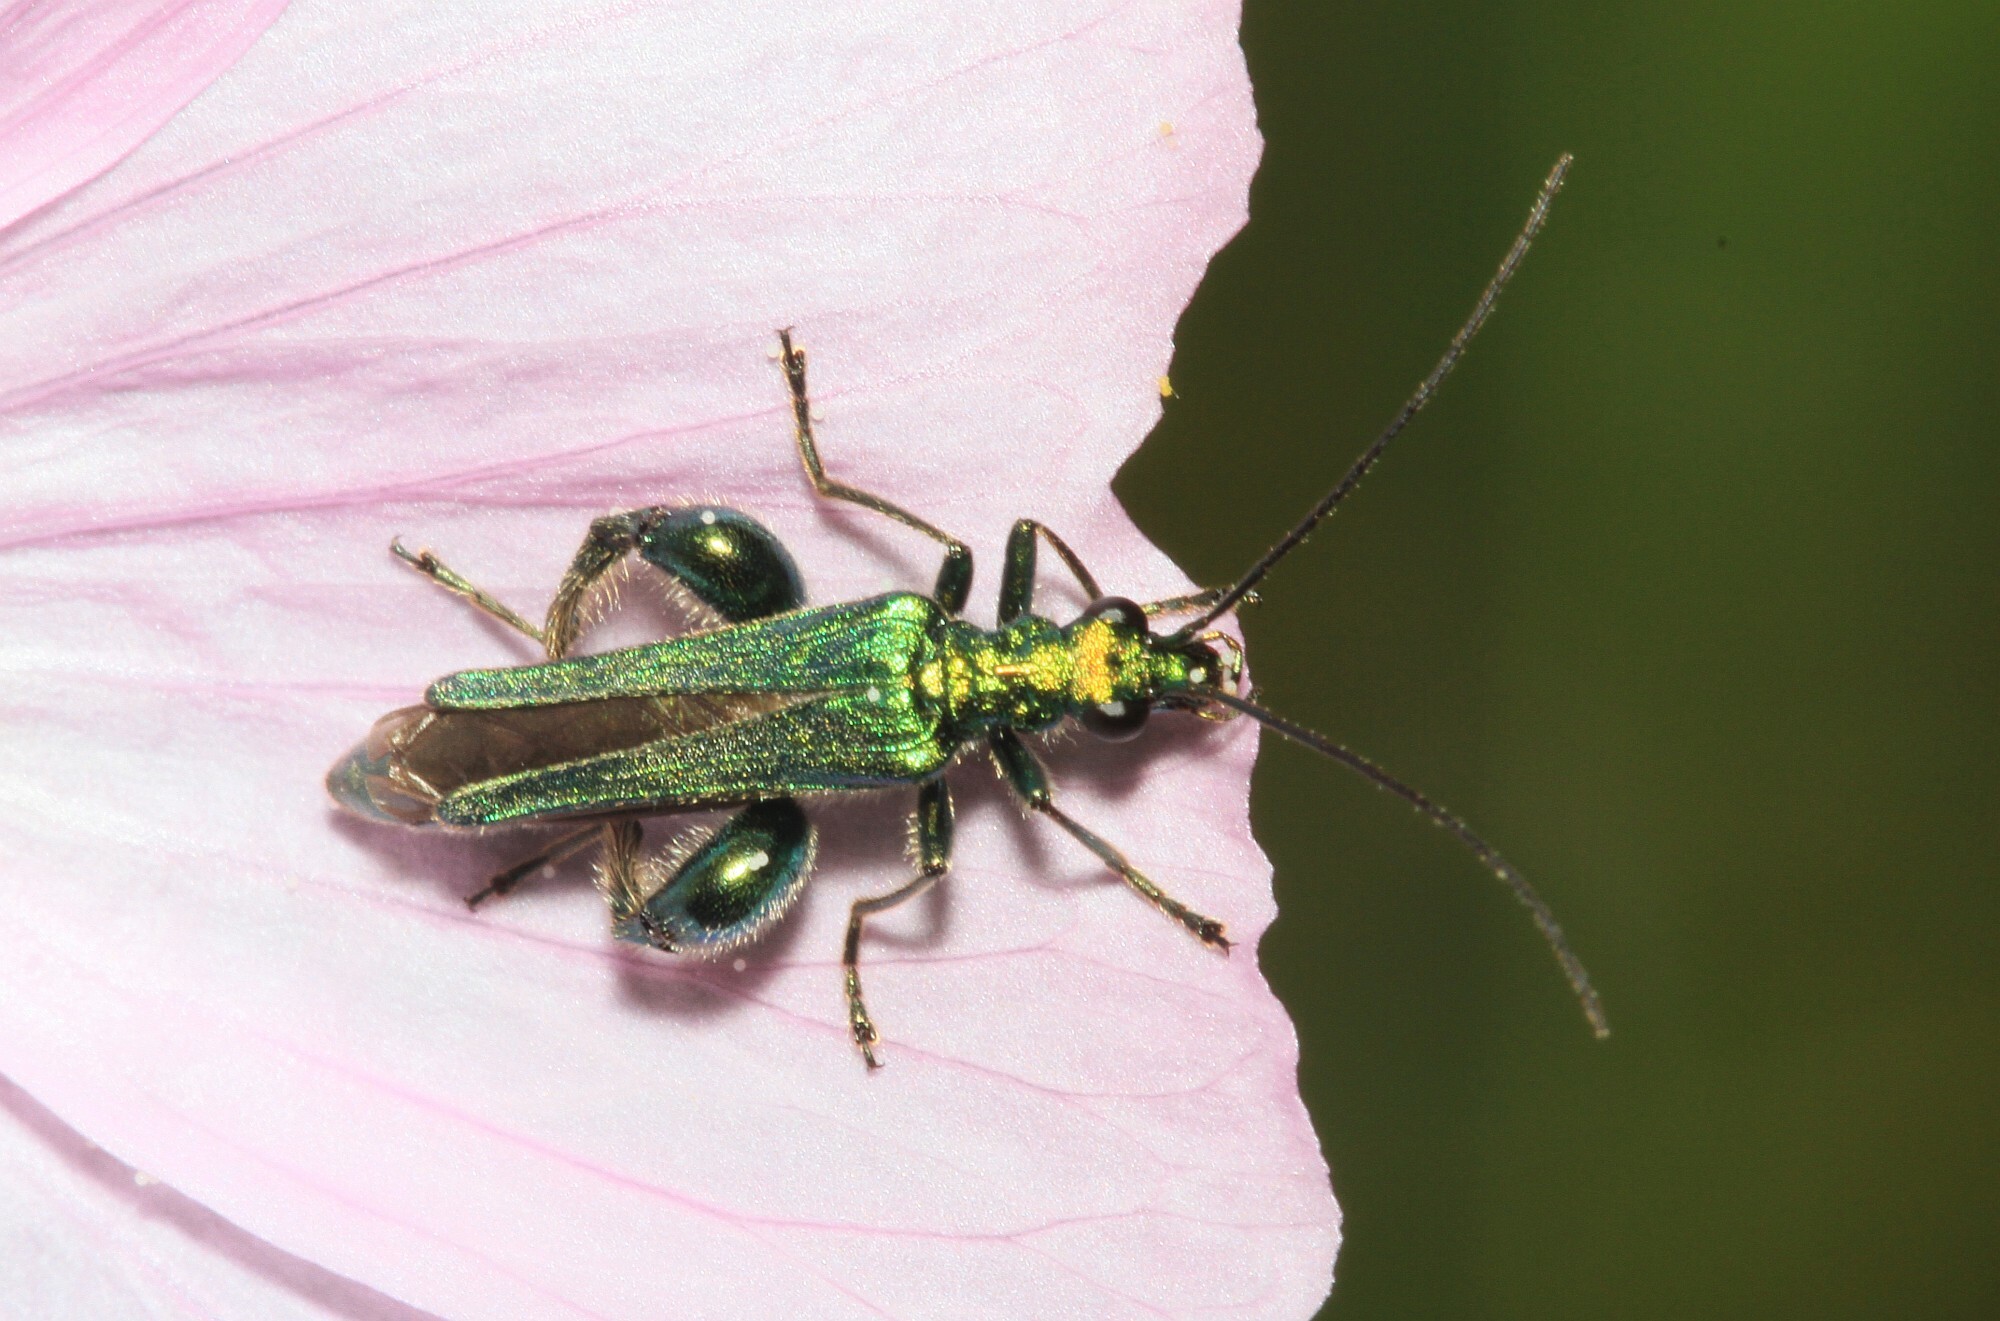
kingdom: Animalia
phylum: Arthropoda
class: Insecta
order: Coleoptera
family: Oedemeridae
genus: Oedemera
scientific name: Oedemera nobilis
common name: Swollen-thighed beetle
